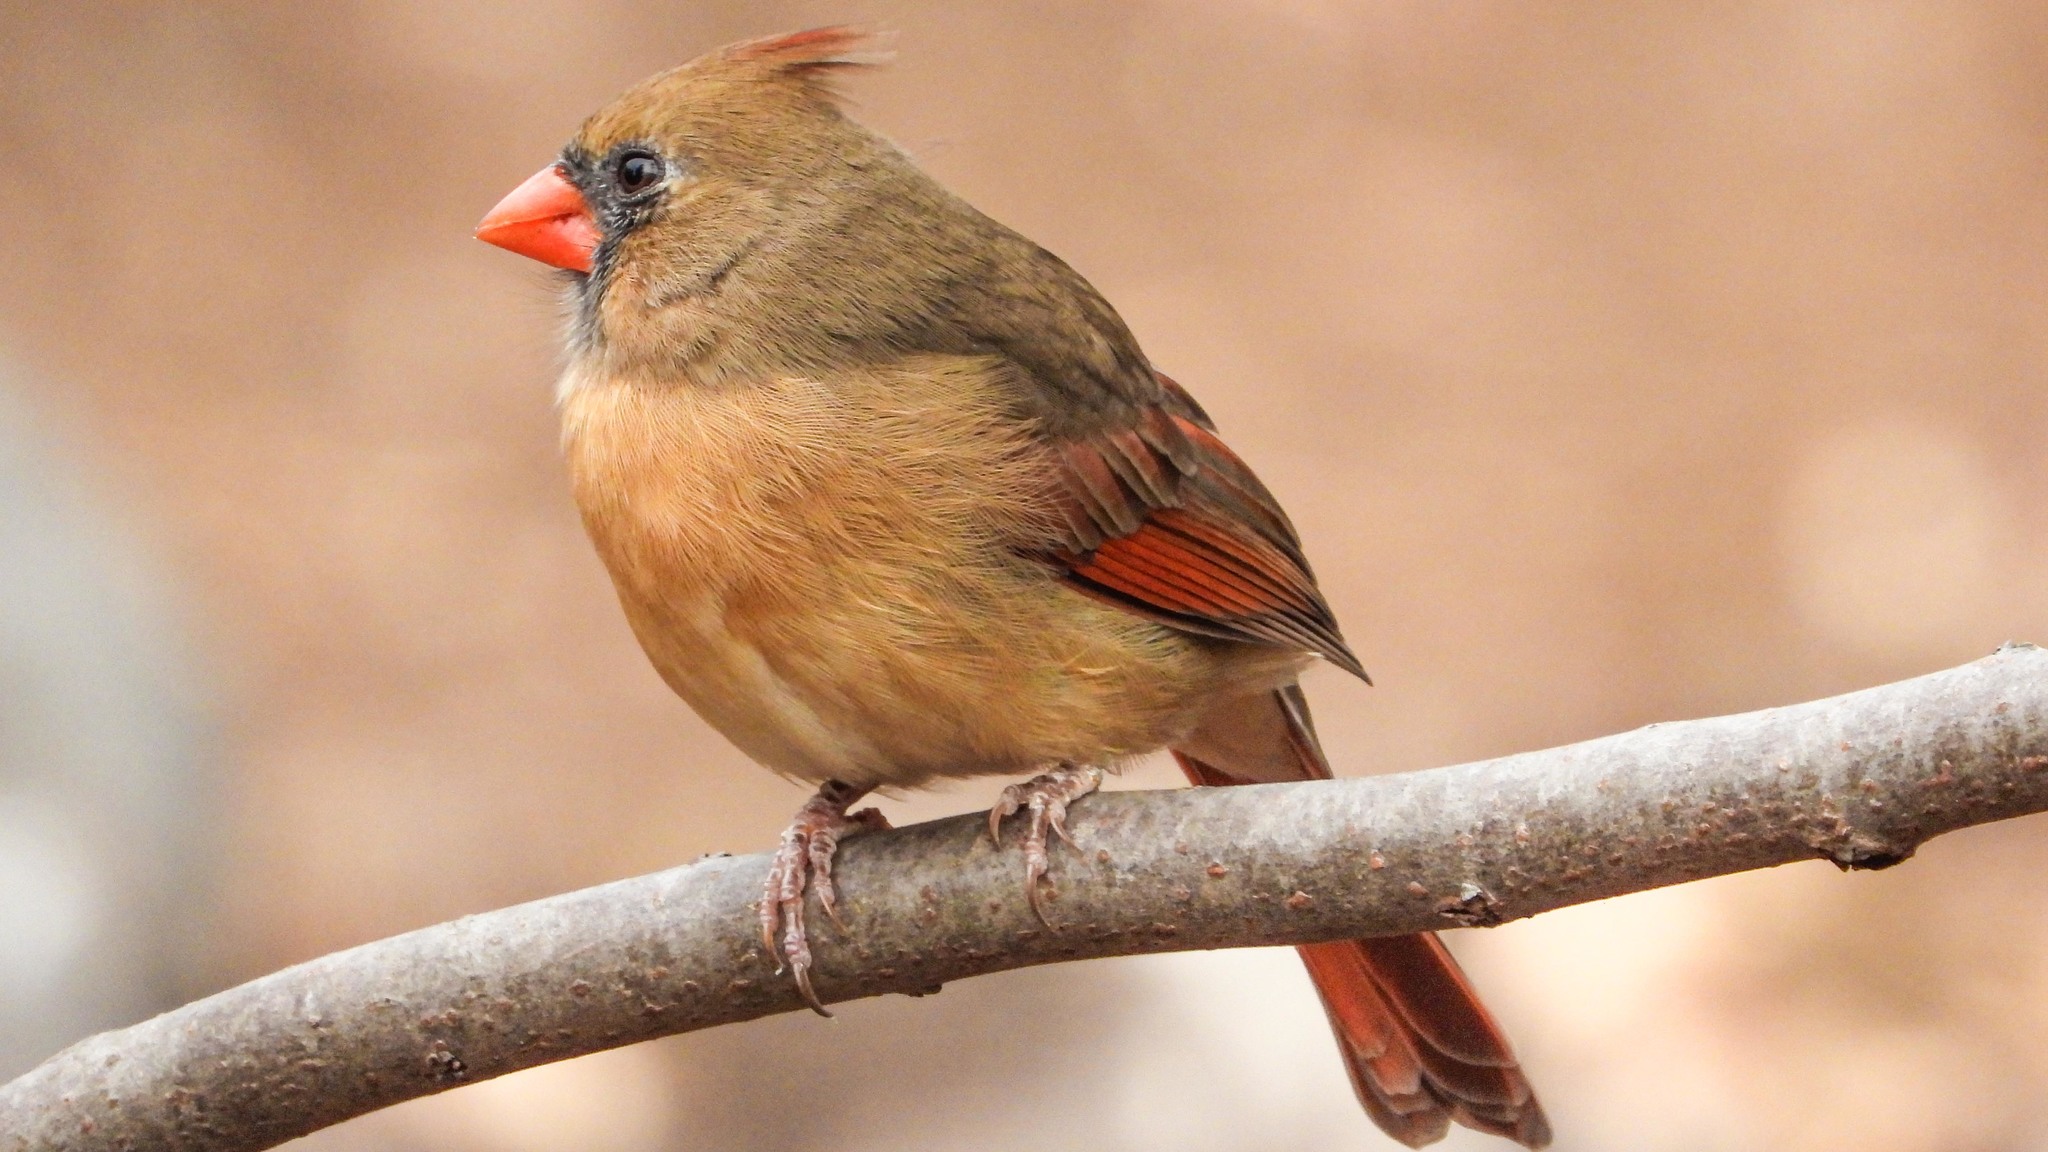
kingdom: Animalia
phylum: Chordata
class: Aves
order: Passeriformes
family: Cardinalidae
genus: Cardinalis
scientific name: Cardinalis cardinalis
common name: Northern cardinal
